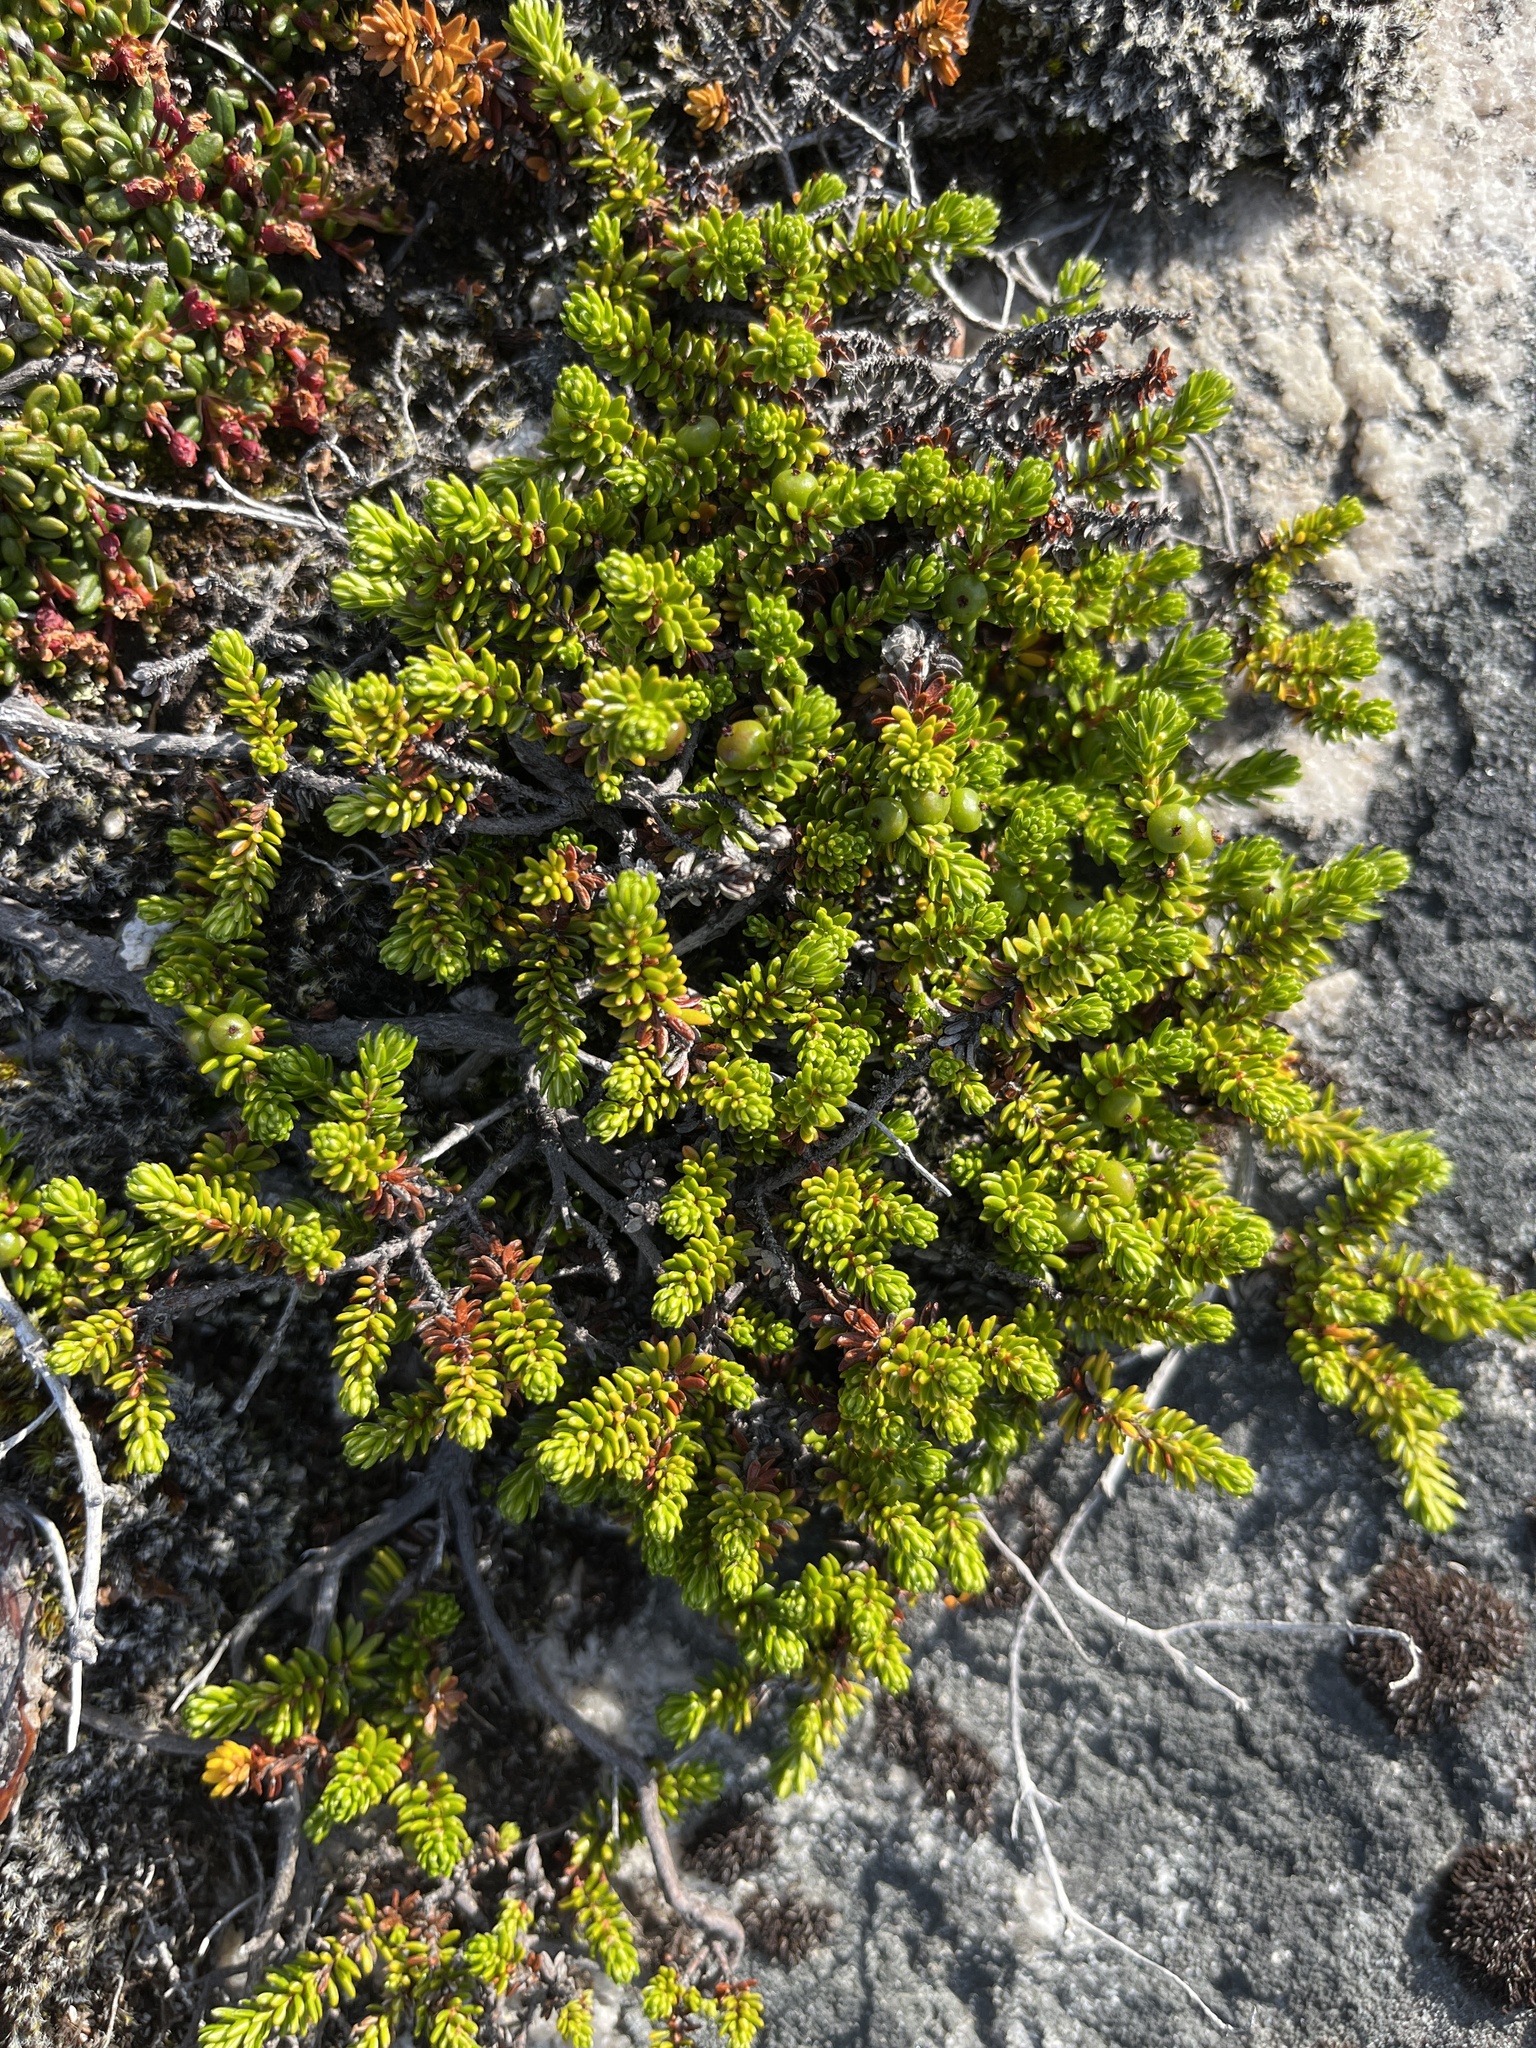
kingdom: Plantae
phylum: Tracheophyta
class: Magnoliopsida
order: Ericales
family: Ericaceae
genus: Empetrum
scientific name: Empetrum hermaphroditum
